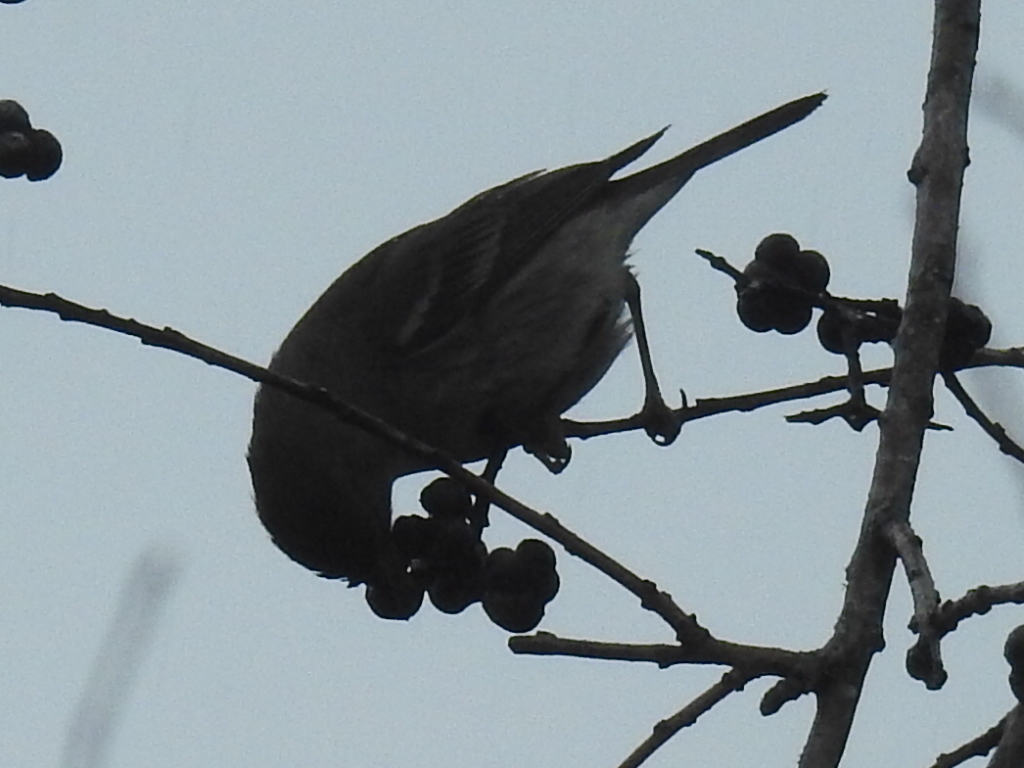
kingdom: Animalia
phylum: Chordata
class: Aves
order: Passeriformes
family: Parulidae
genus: Setophaga
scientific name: Setophaga pinus
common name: Pine warbler
